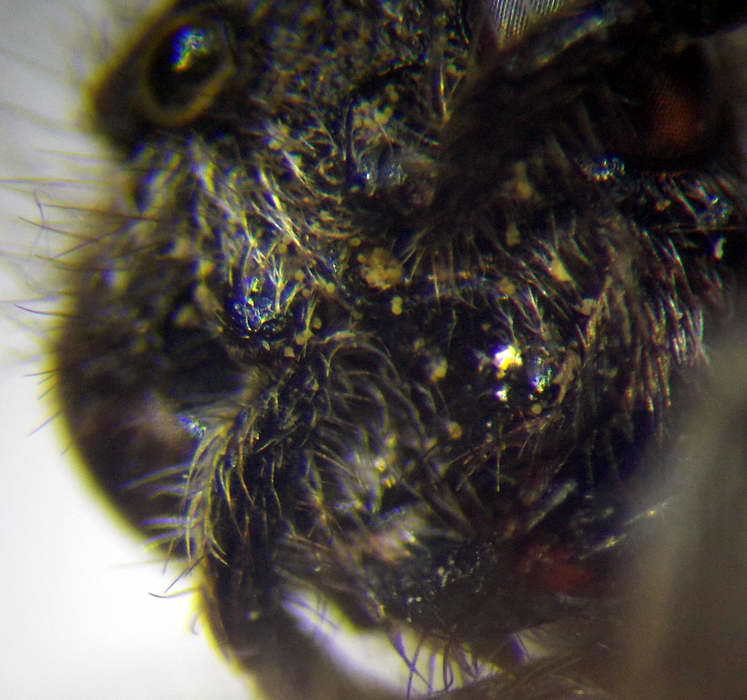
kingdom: Animalia
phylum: Arthropoda
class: Insecta
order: Hymenoptera
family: Mutillidae
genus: Nemka
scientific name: Nemka viduata
